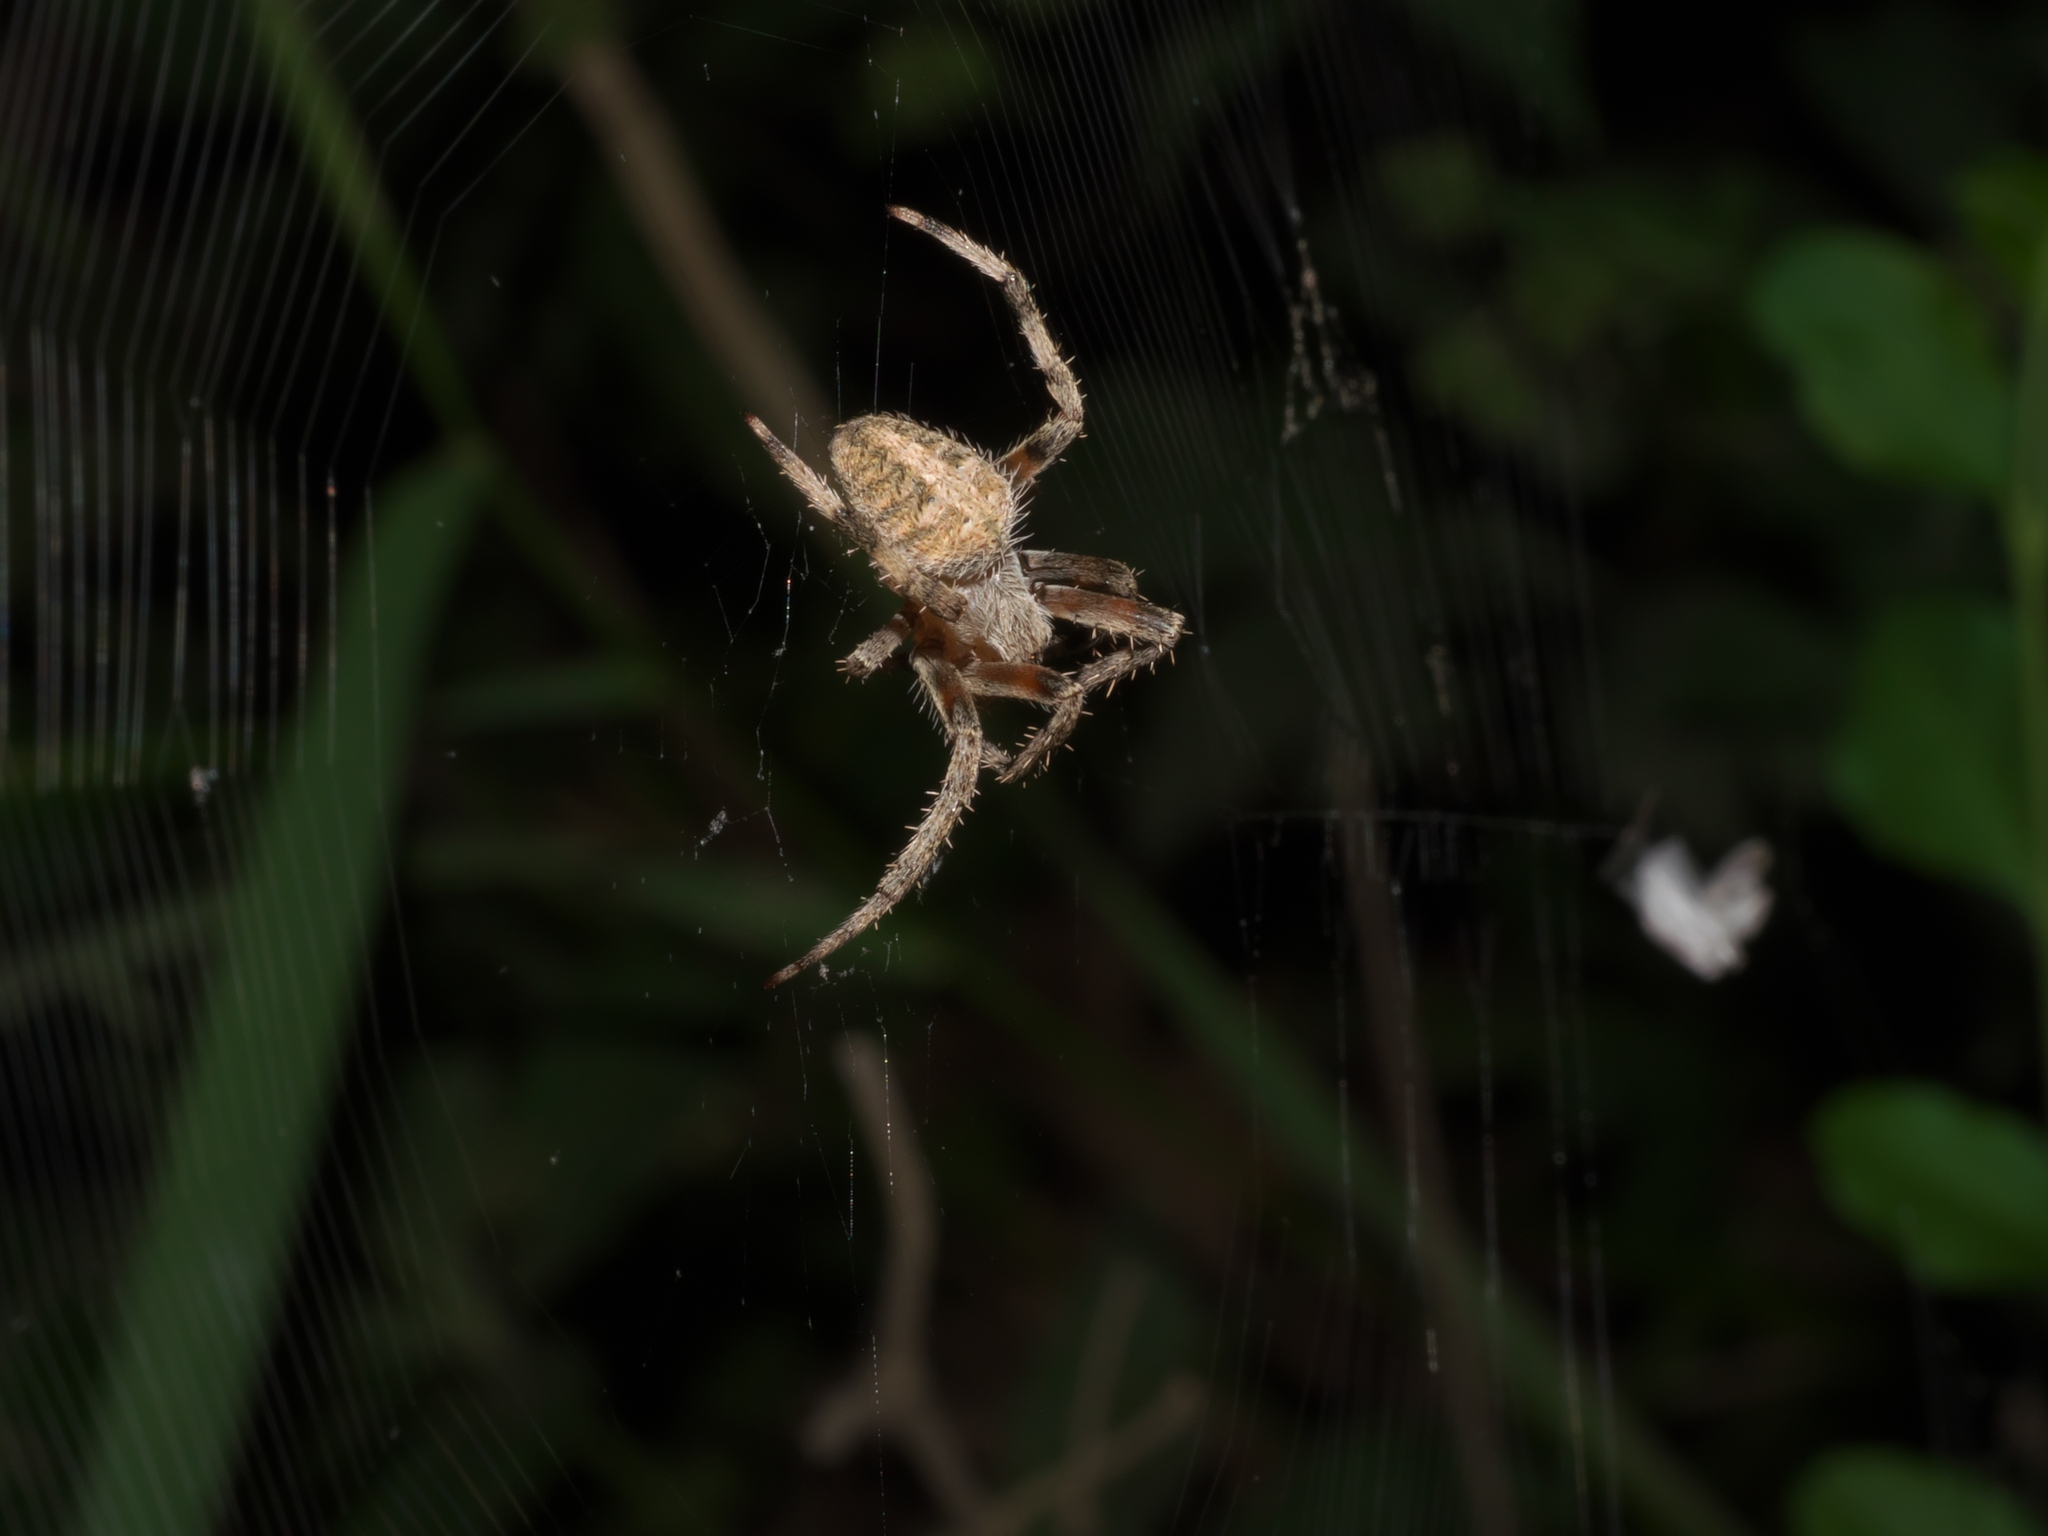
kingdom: Animalia
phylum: Arthropoda
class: Arachnida
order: Araneae
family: Araneidae
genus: Neoscona
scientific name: Neoscona crucifera
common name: Spotted orbweaver
